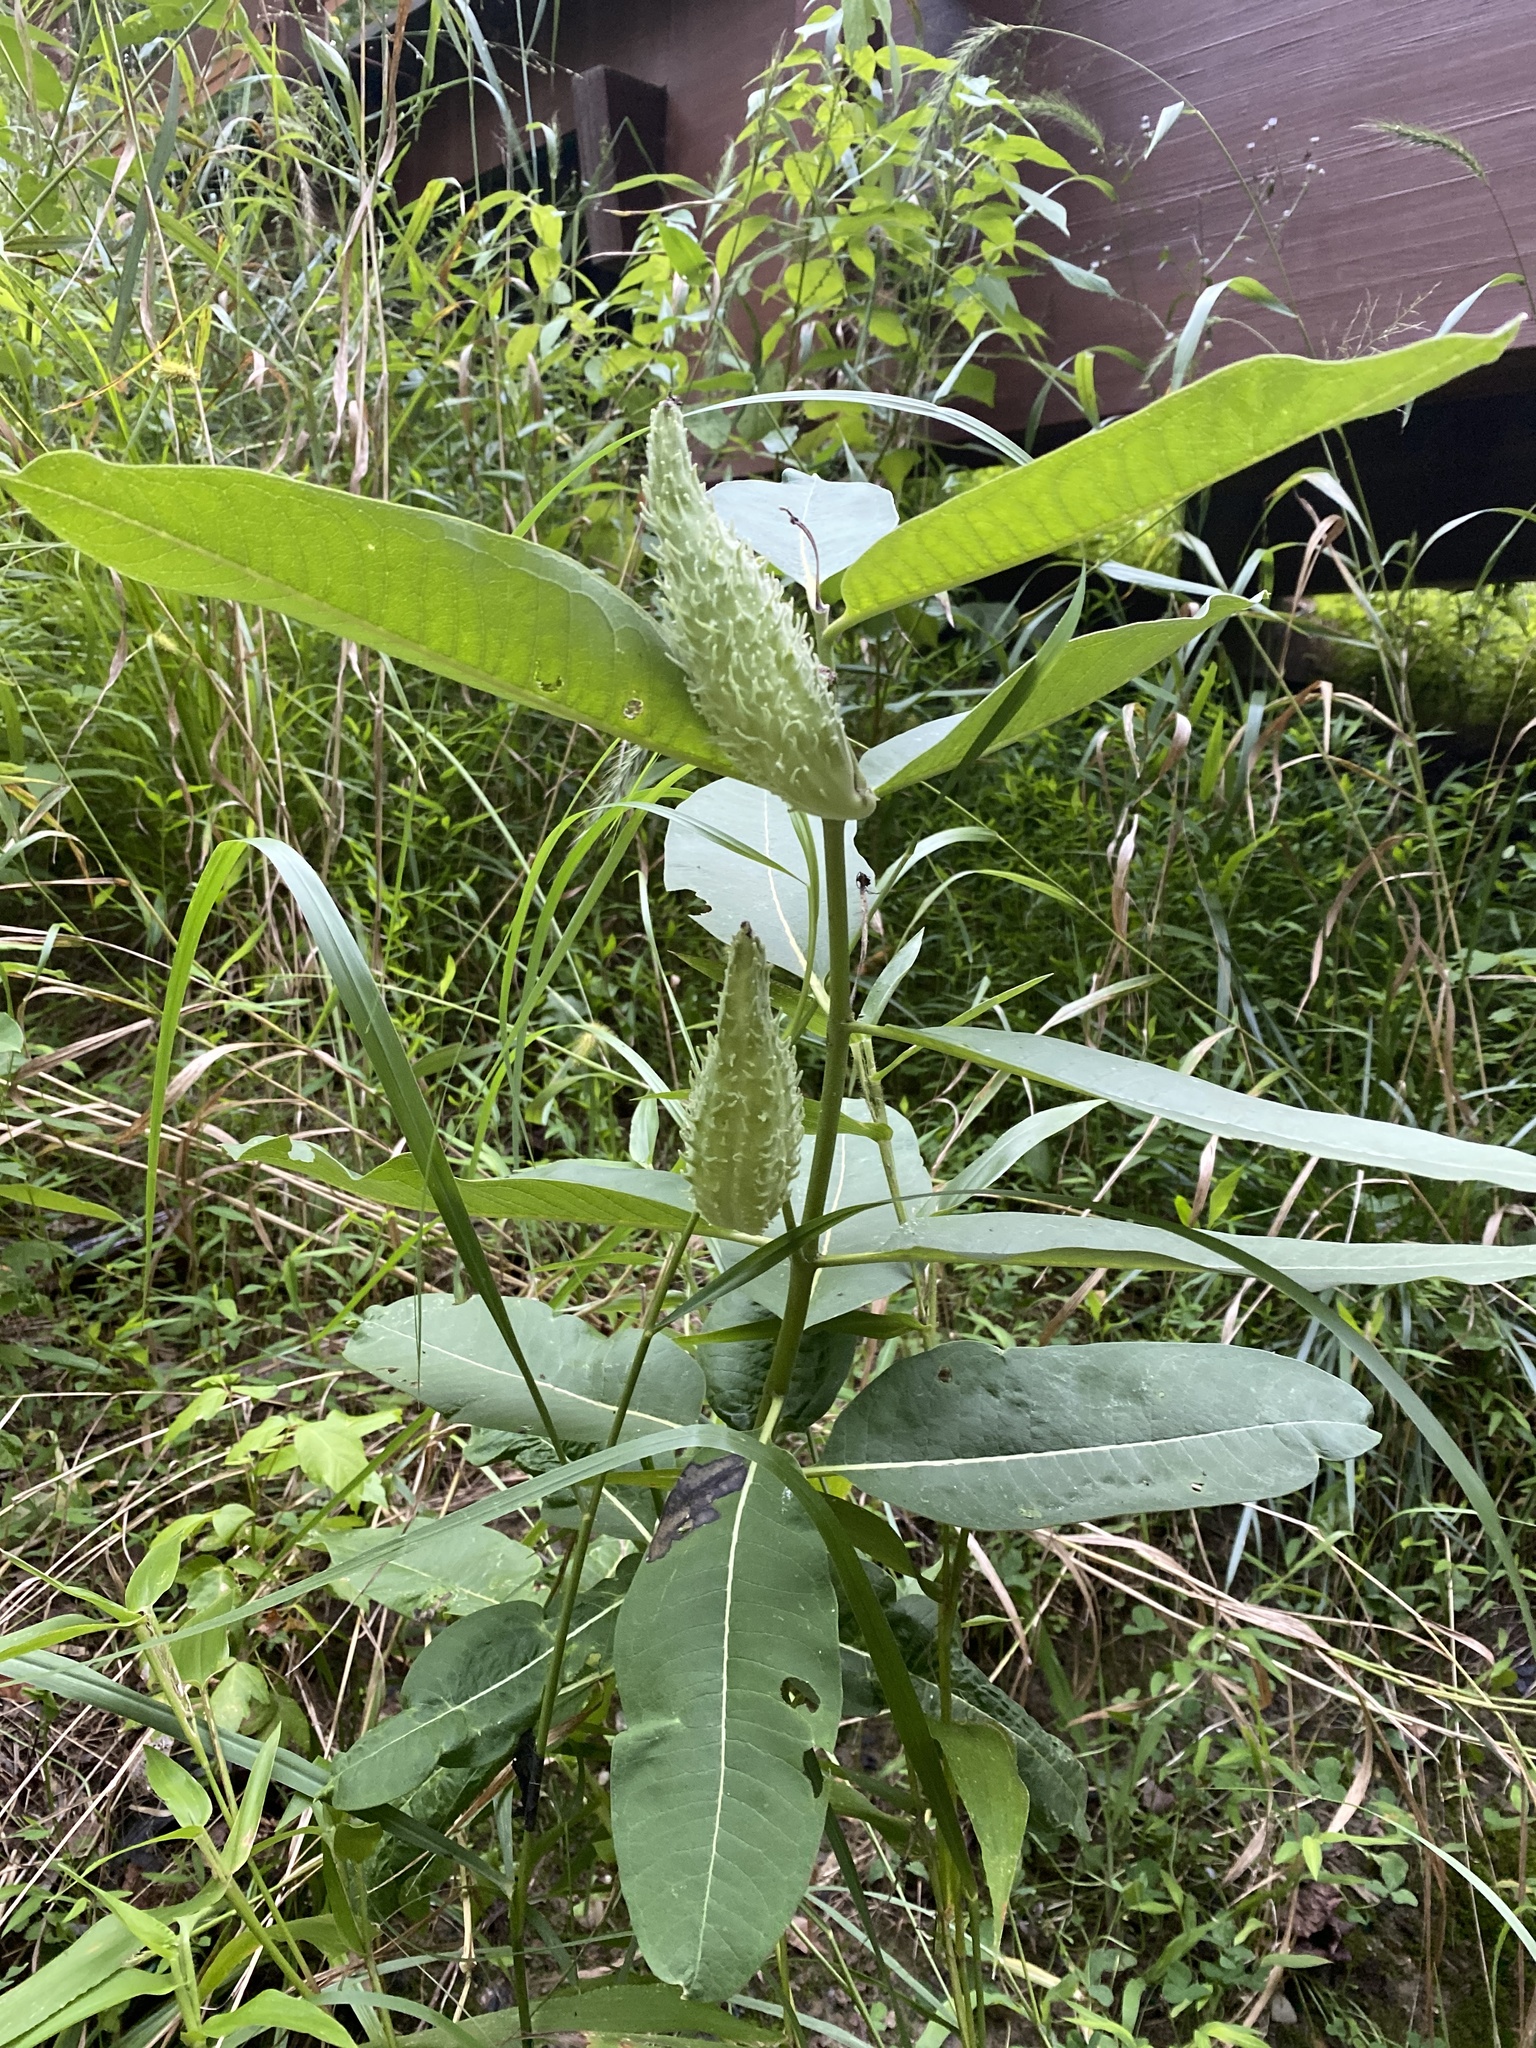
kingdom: Plantae
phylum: Tracheophyta
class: Magnoliopsida
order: Gentianales
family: Apocynaceae
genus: Asclepias
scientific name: Asclepias syriaca
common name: Common milkweed
